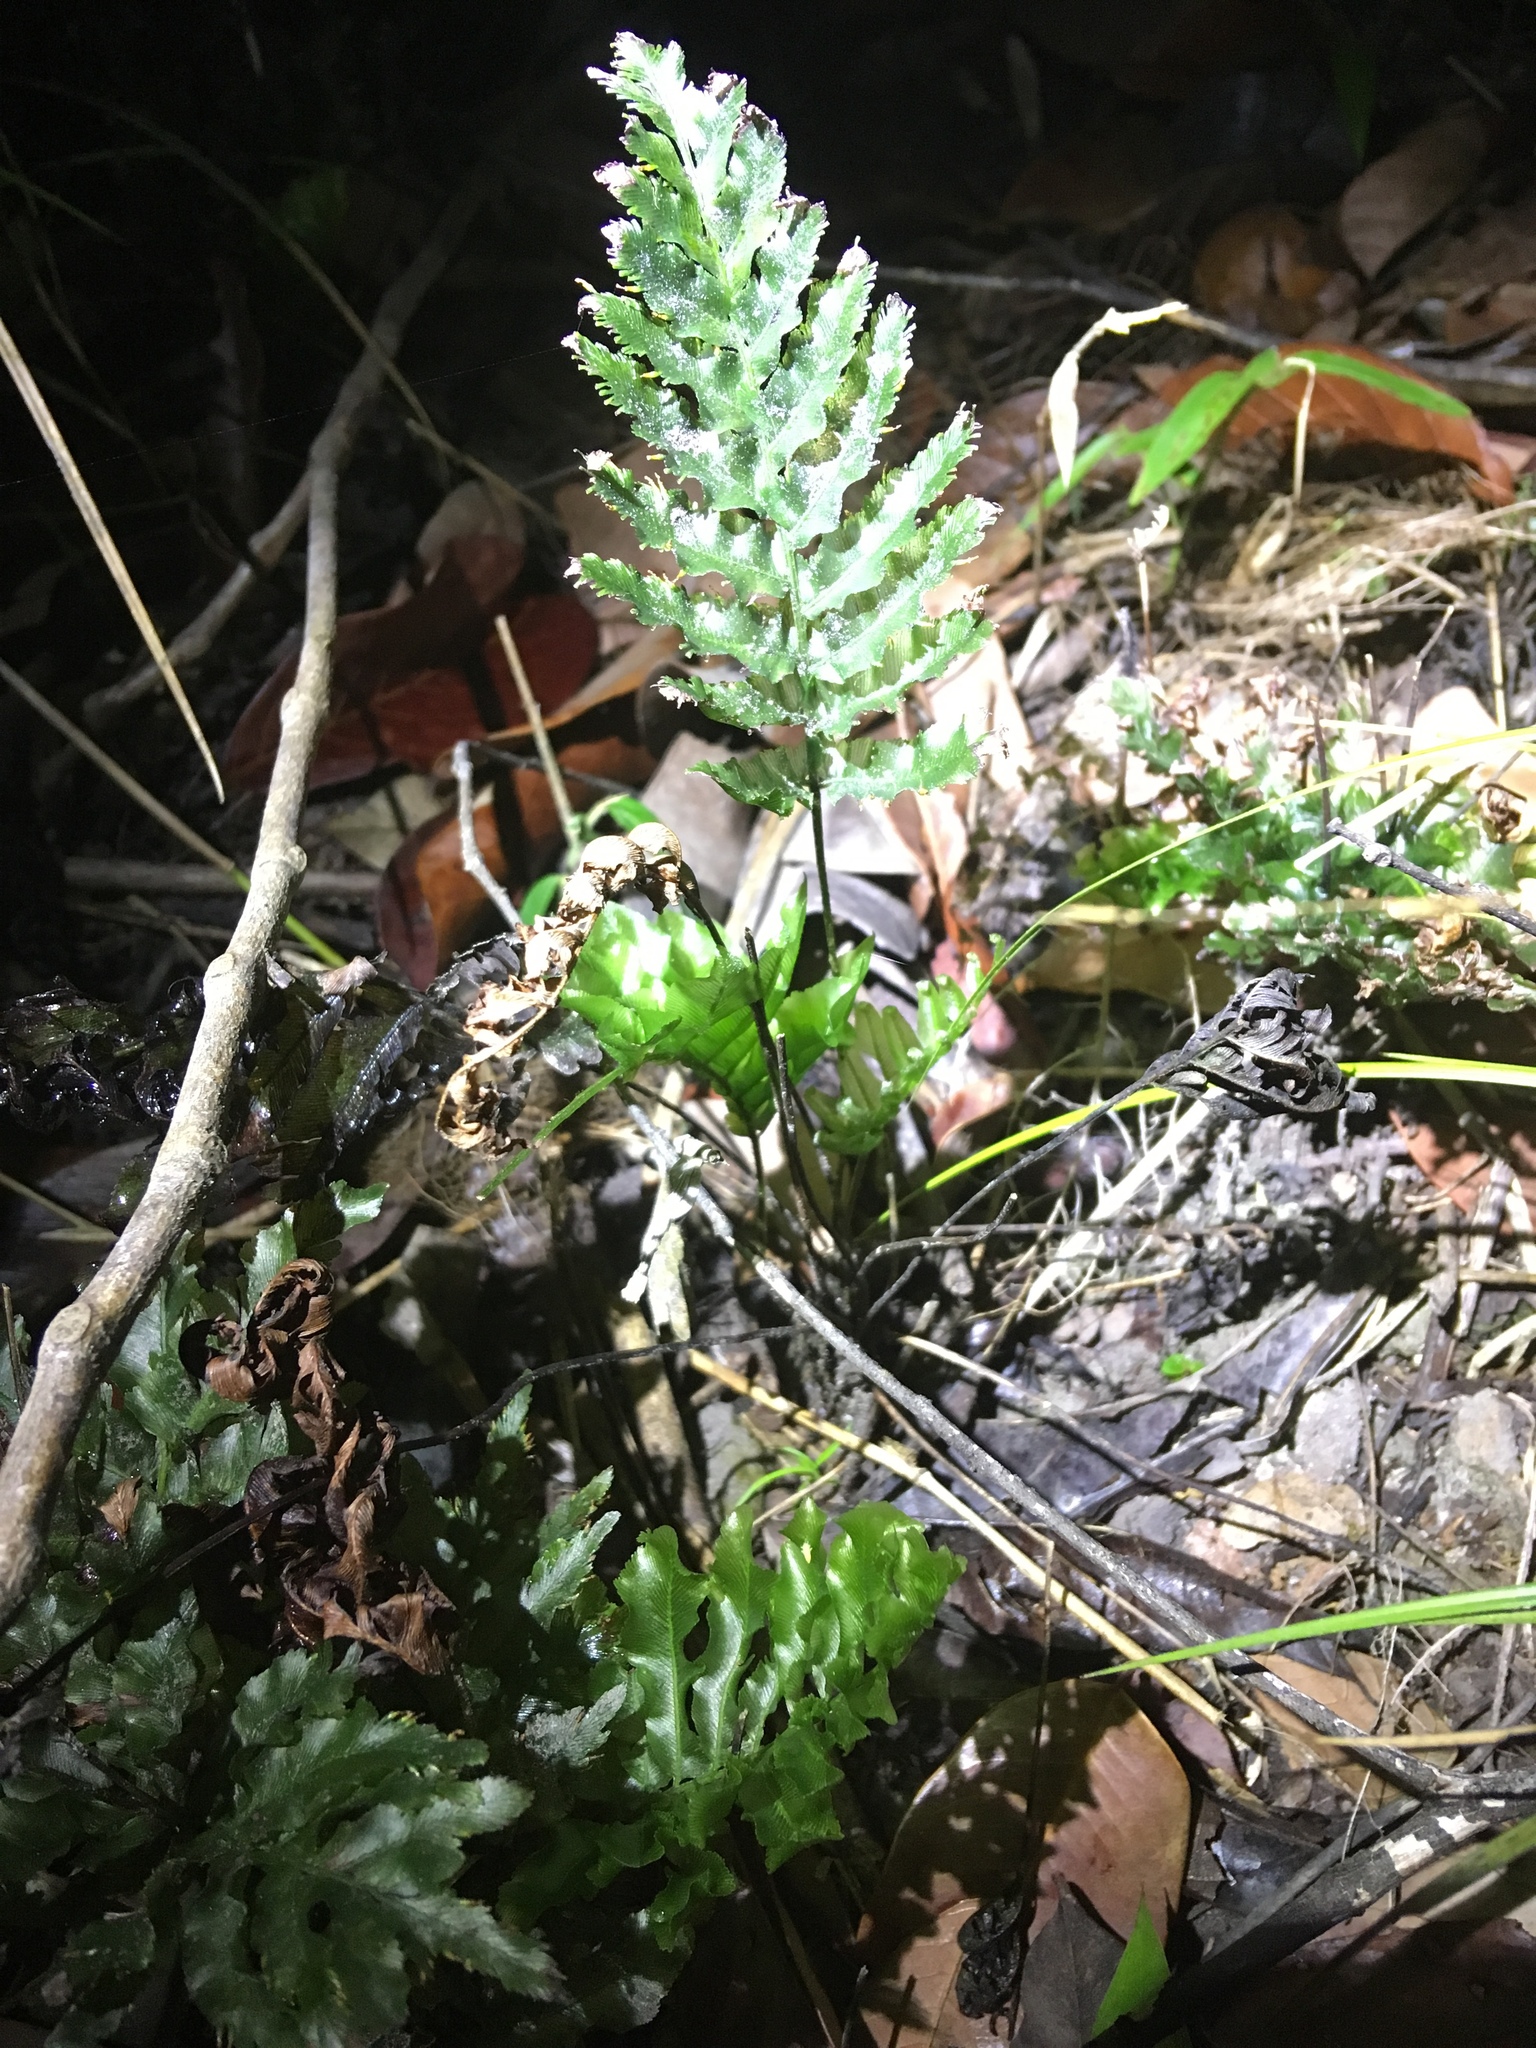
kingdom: Plantae
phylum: Tracheophyta
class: Polypodiopsida
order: Hymenophyllales
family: Hymenophyllaceae
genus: Trichomanes
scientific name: Trichomanes hostmannianum
